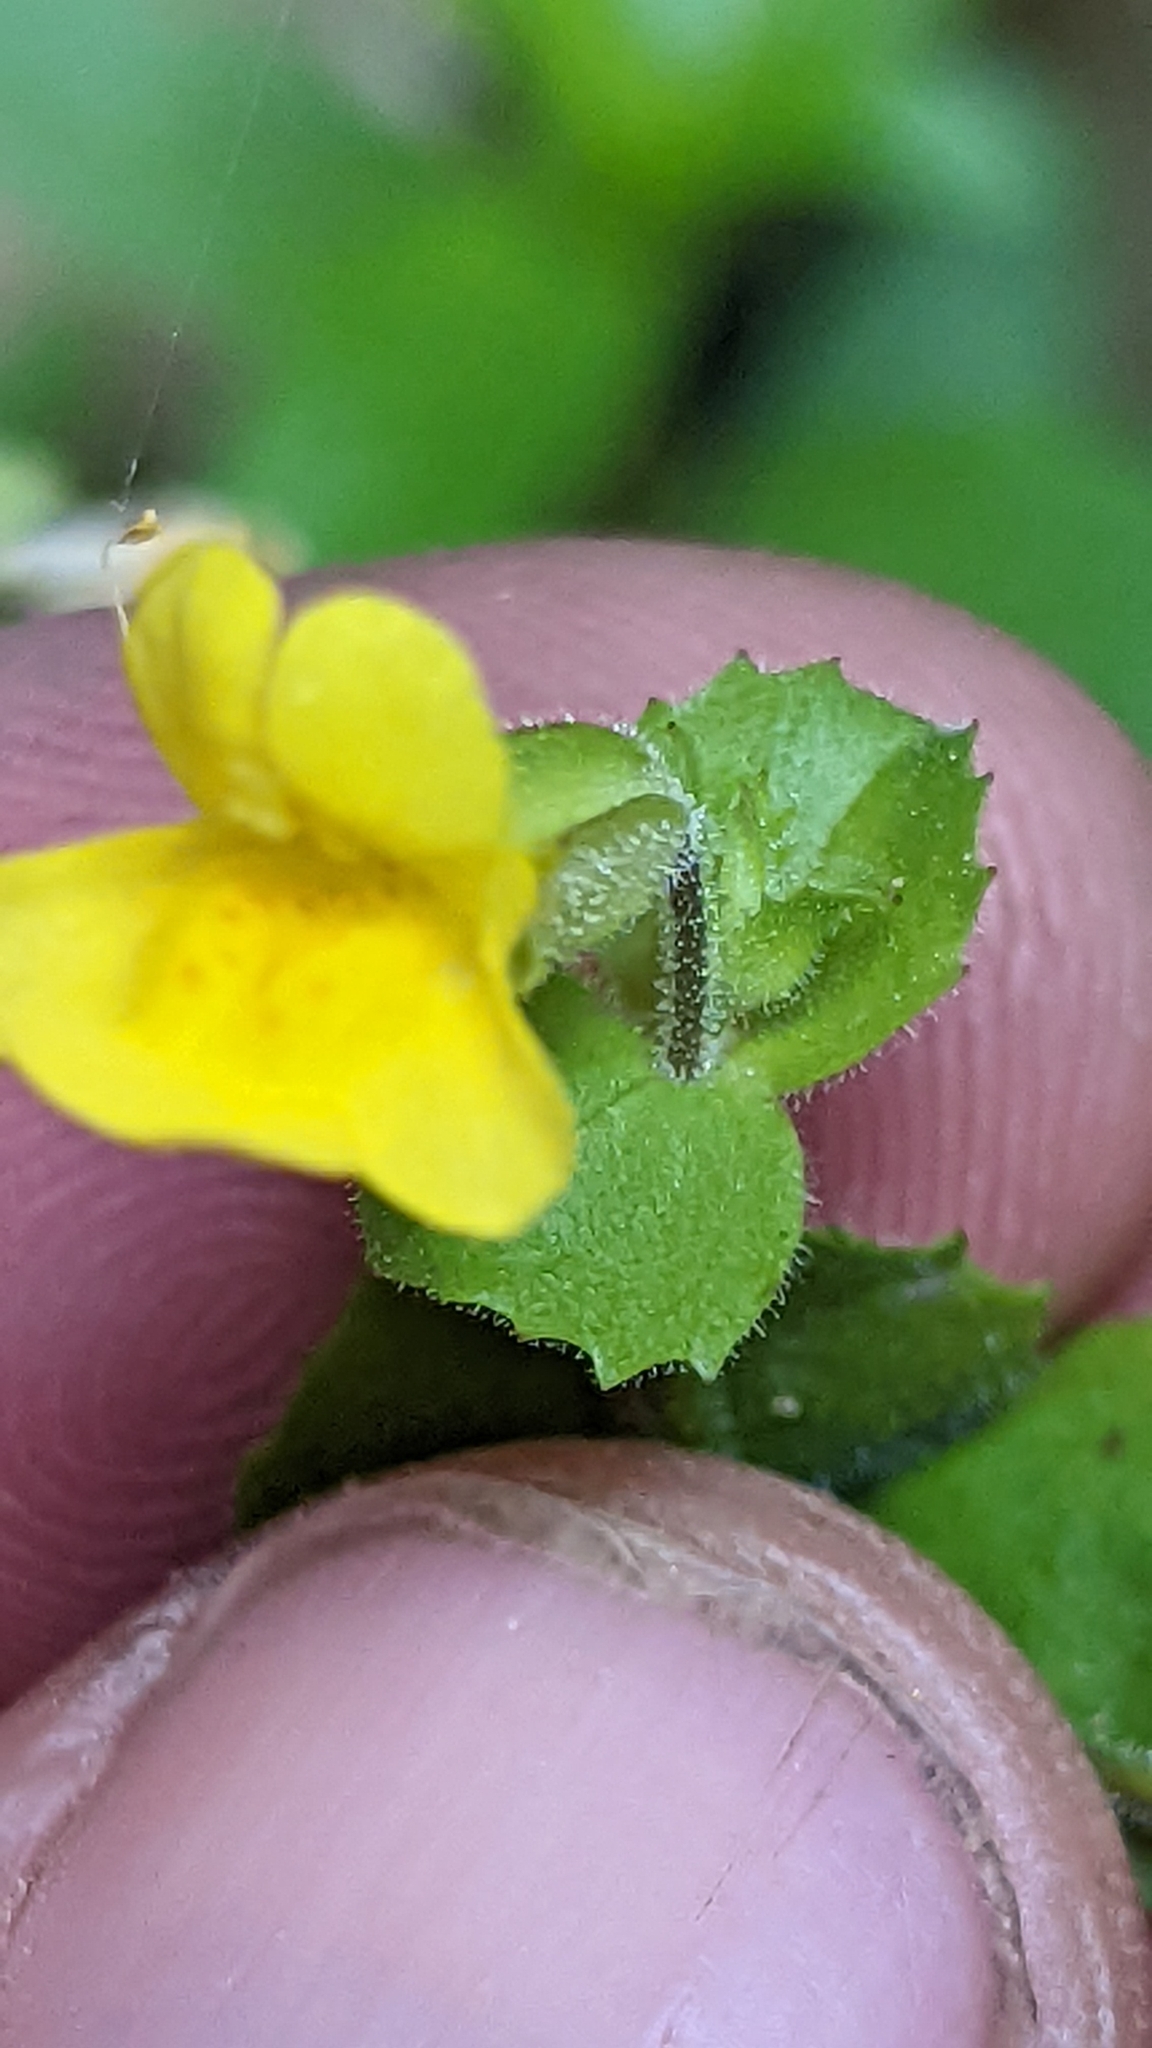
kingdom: Plantae
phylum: Tracheophyta
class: Magnoliopsida
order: Lamiales
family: Phrymaceae
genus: Erythranthe
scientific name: Erythranthe guttata
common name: Monkeyflower
